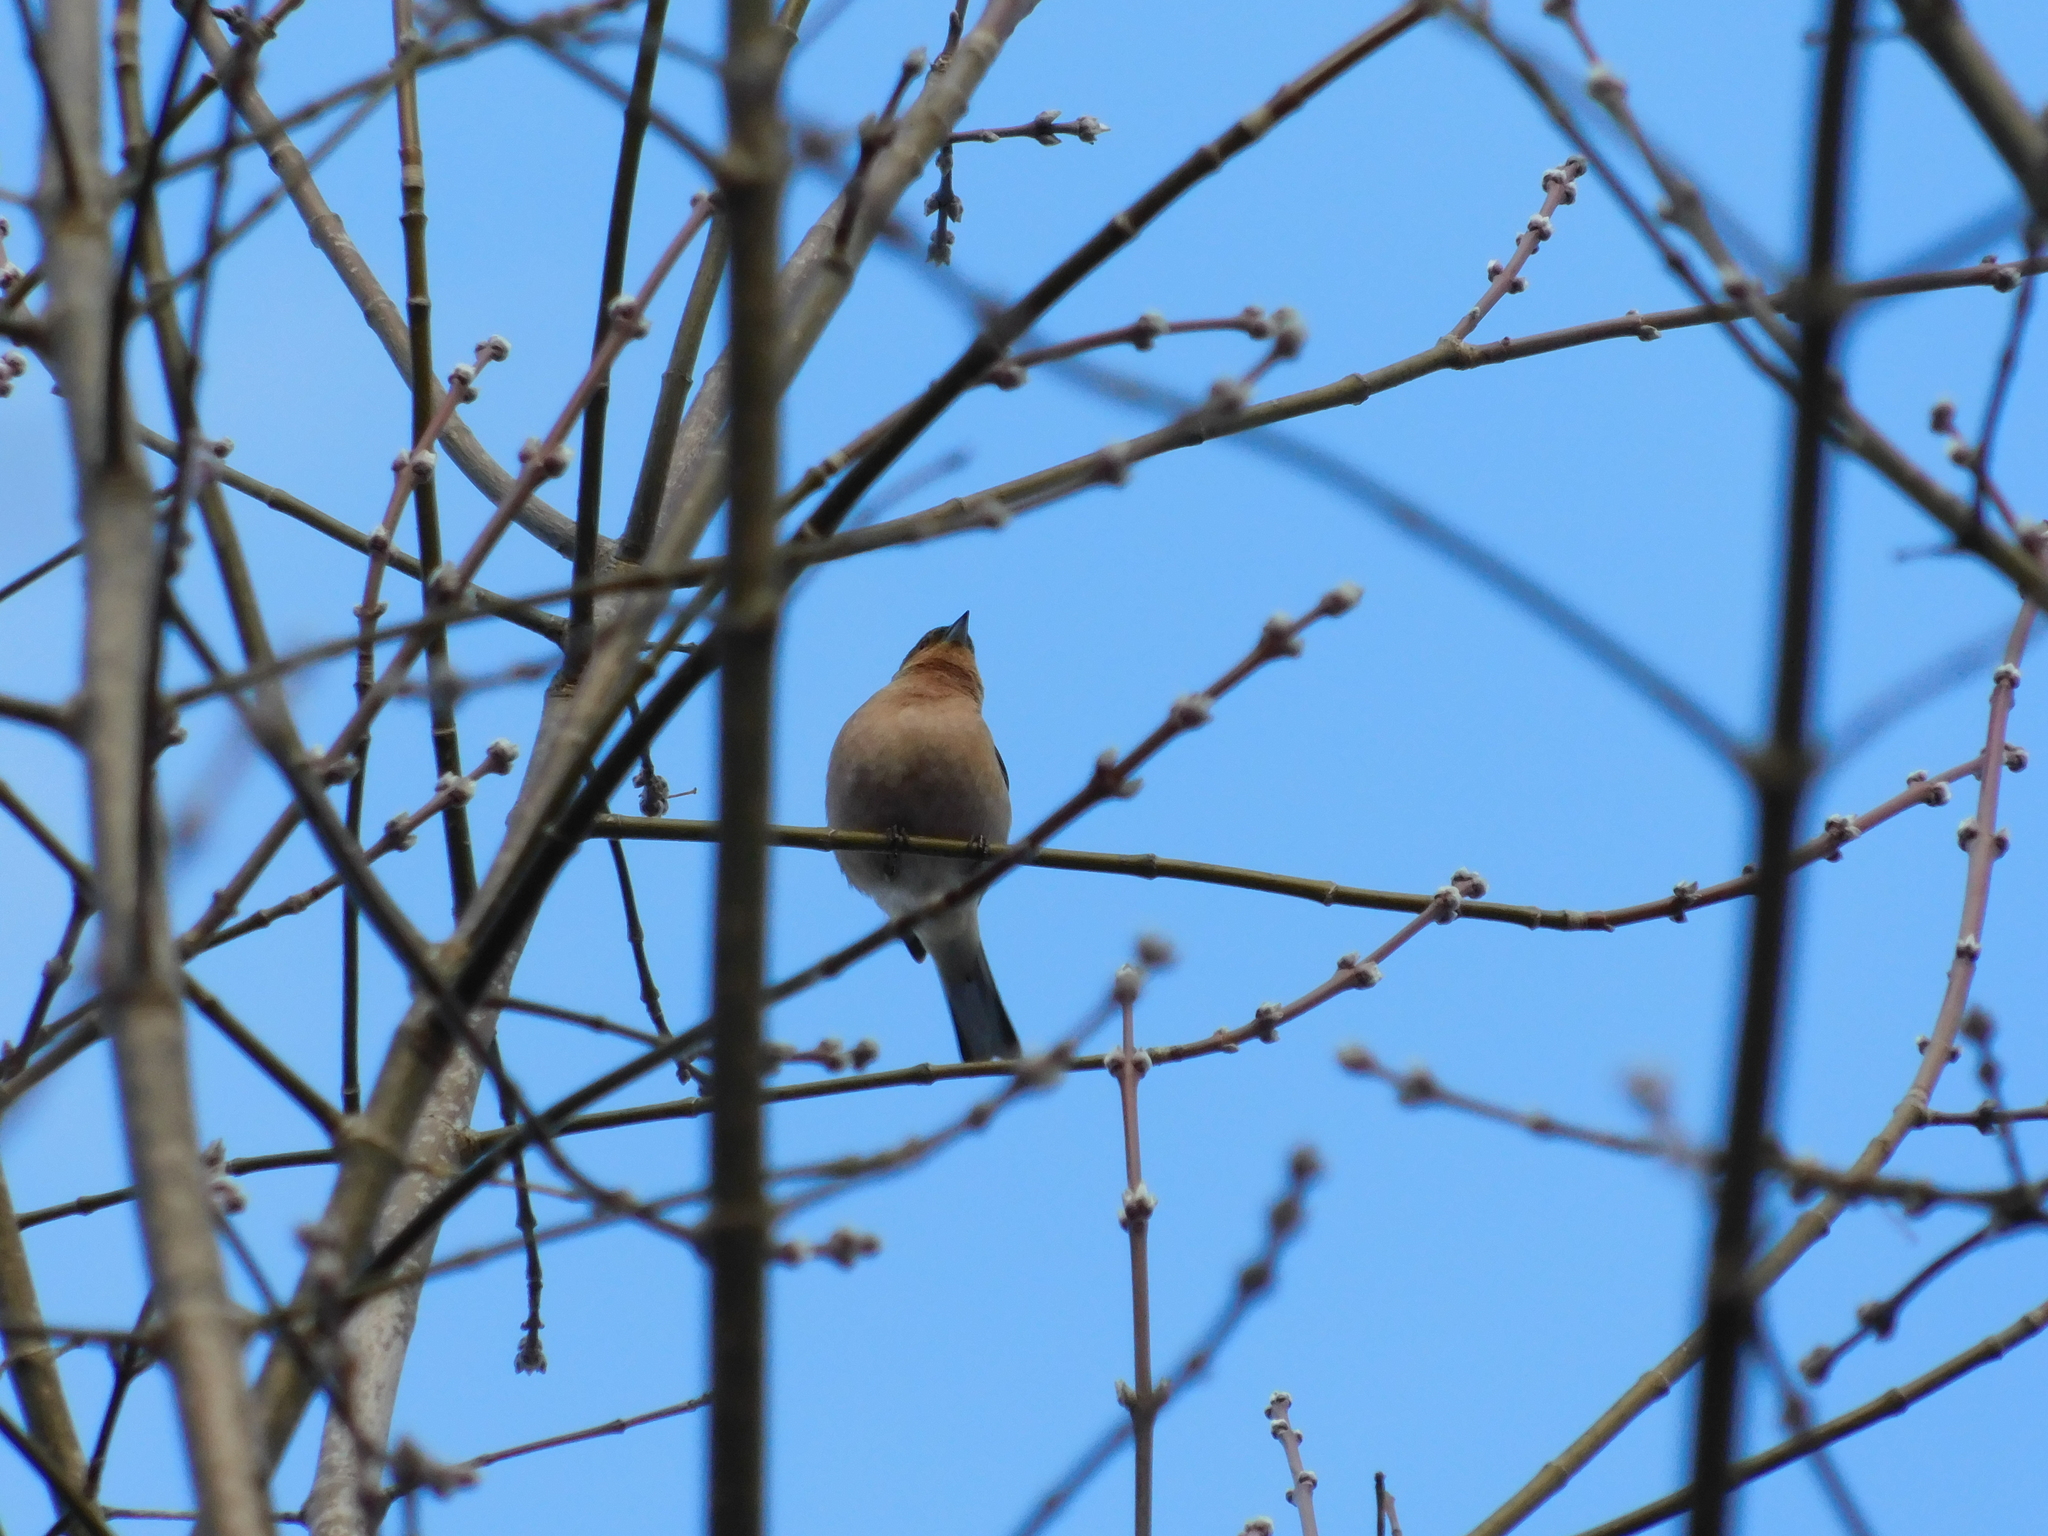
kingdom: Animalia
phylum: Chordata
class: Aves
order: Passeriformes
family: Fringillidae
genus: Fringilla
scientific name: Fringilla coelebs
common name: Common chaffinch
